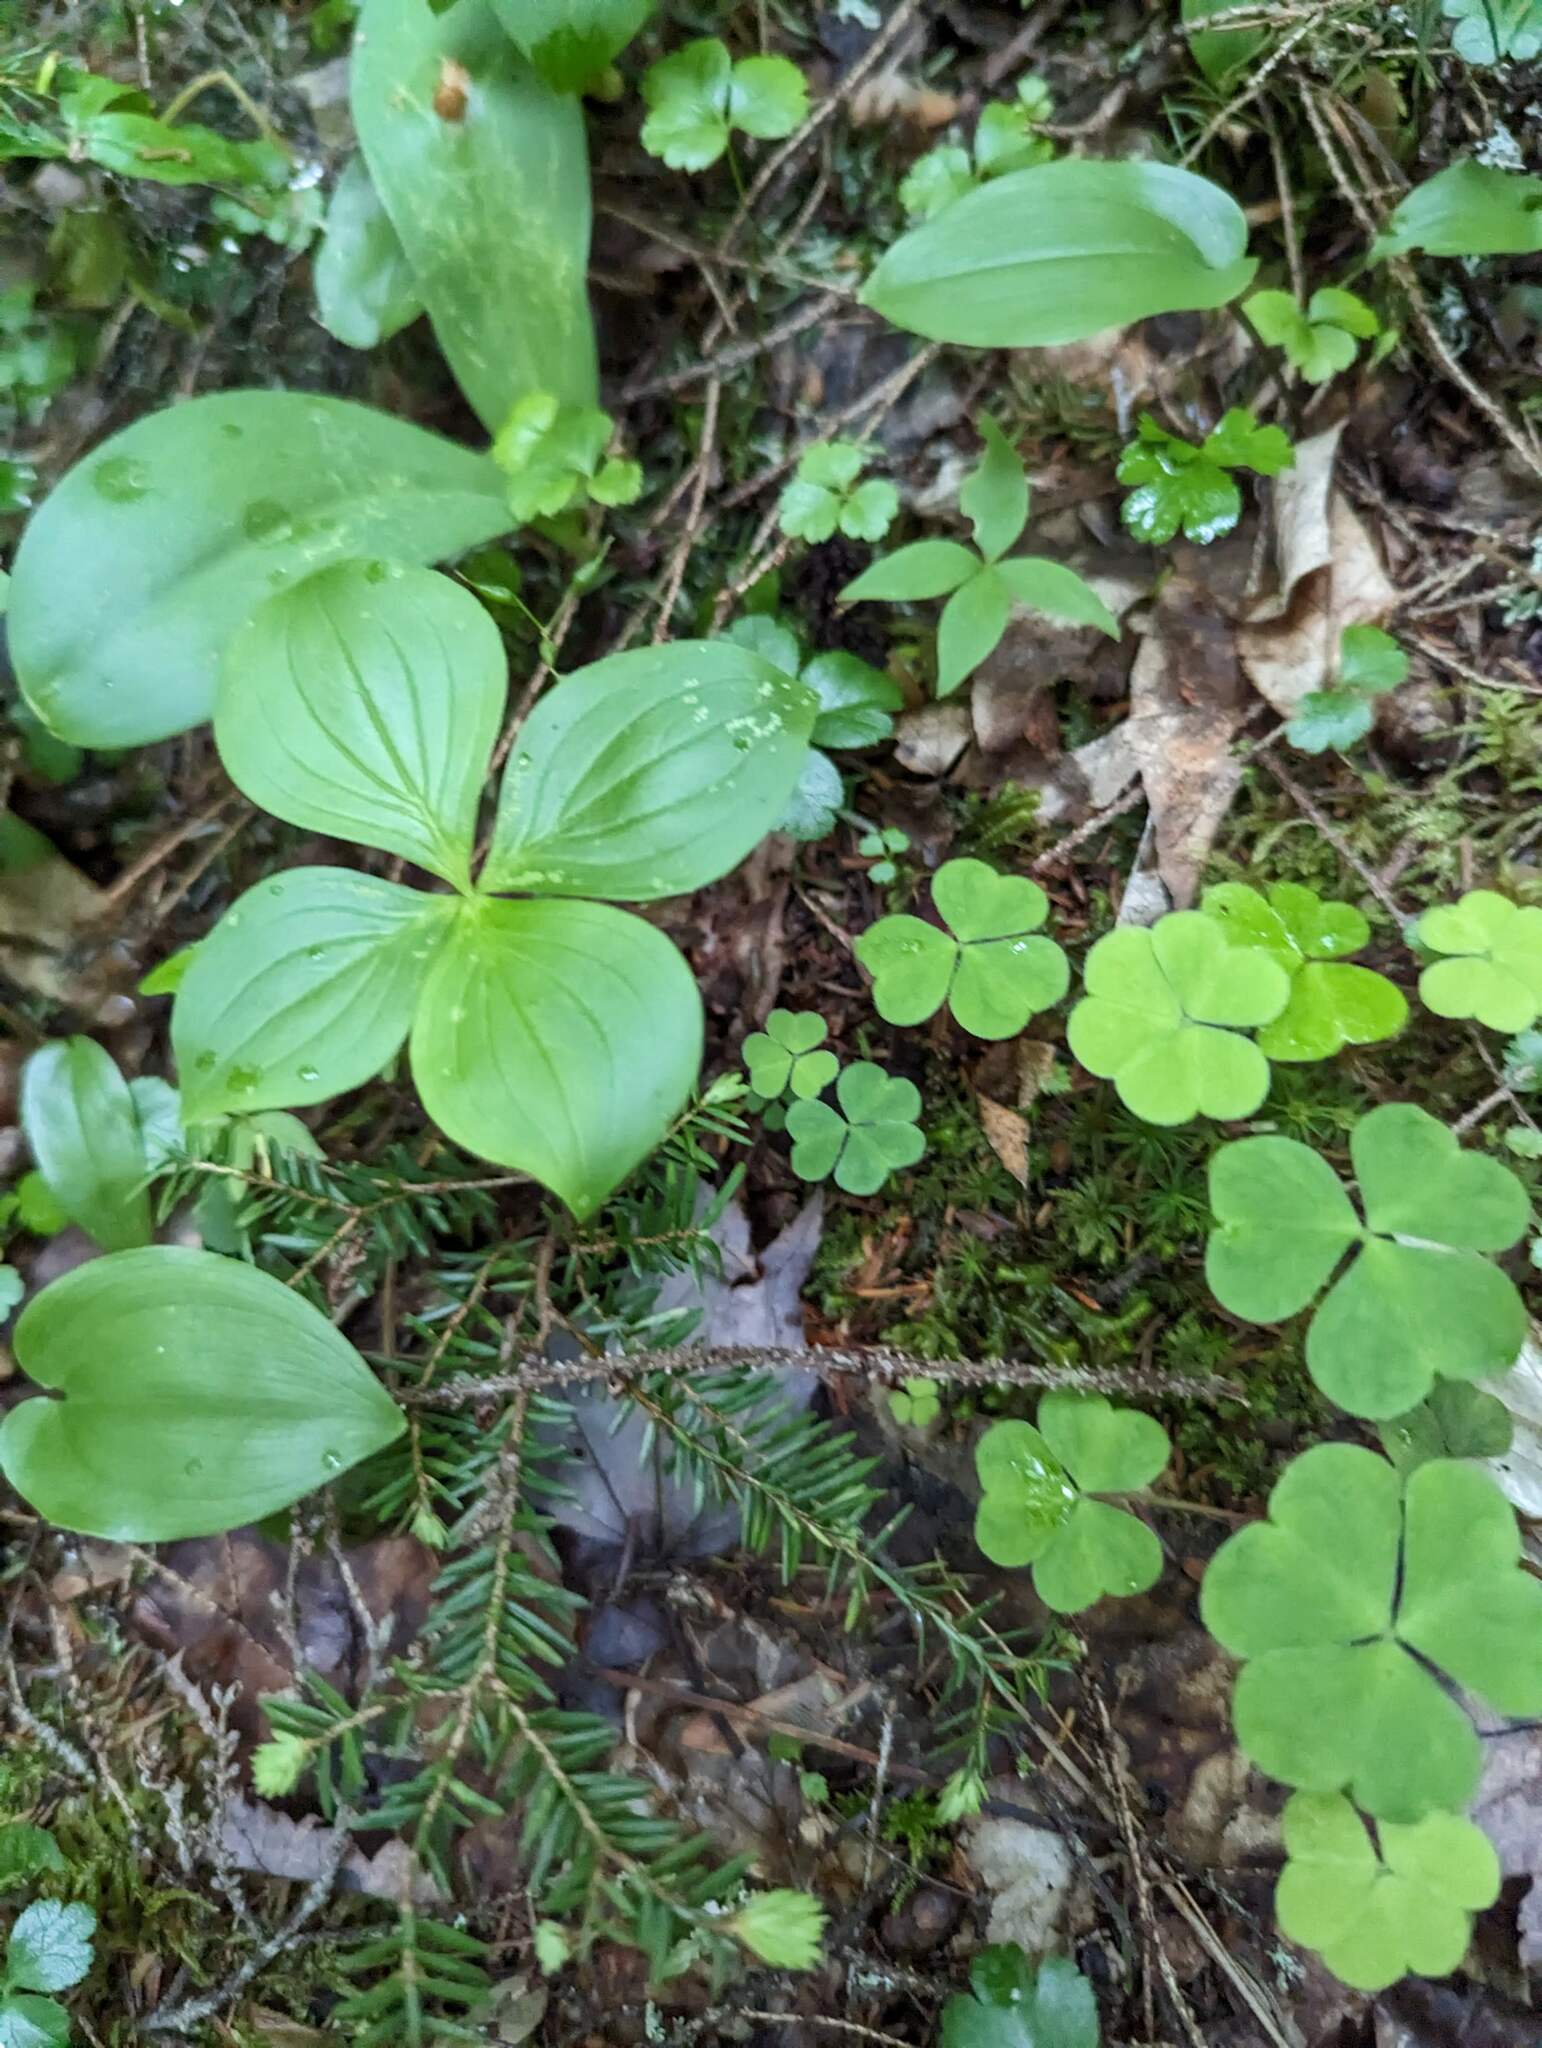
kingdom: Plantae
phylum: Tracheophyta
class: Pinopsida
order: Pinales
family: Pinaceae
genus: Tsuga
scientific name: Tsuga canadensis
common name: Eastern hemlock
